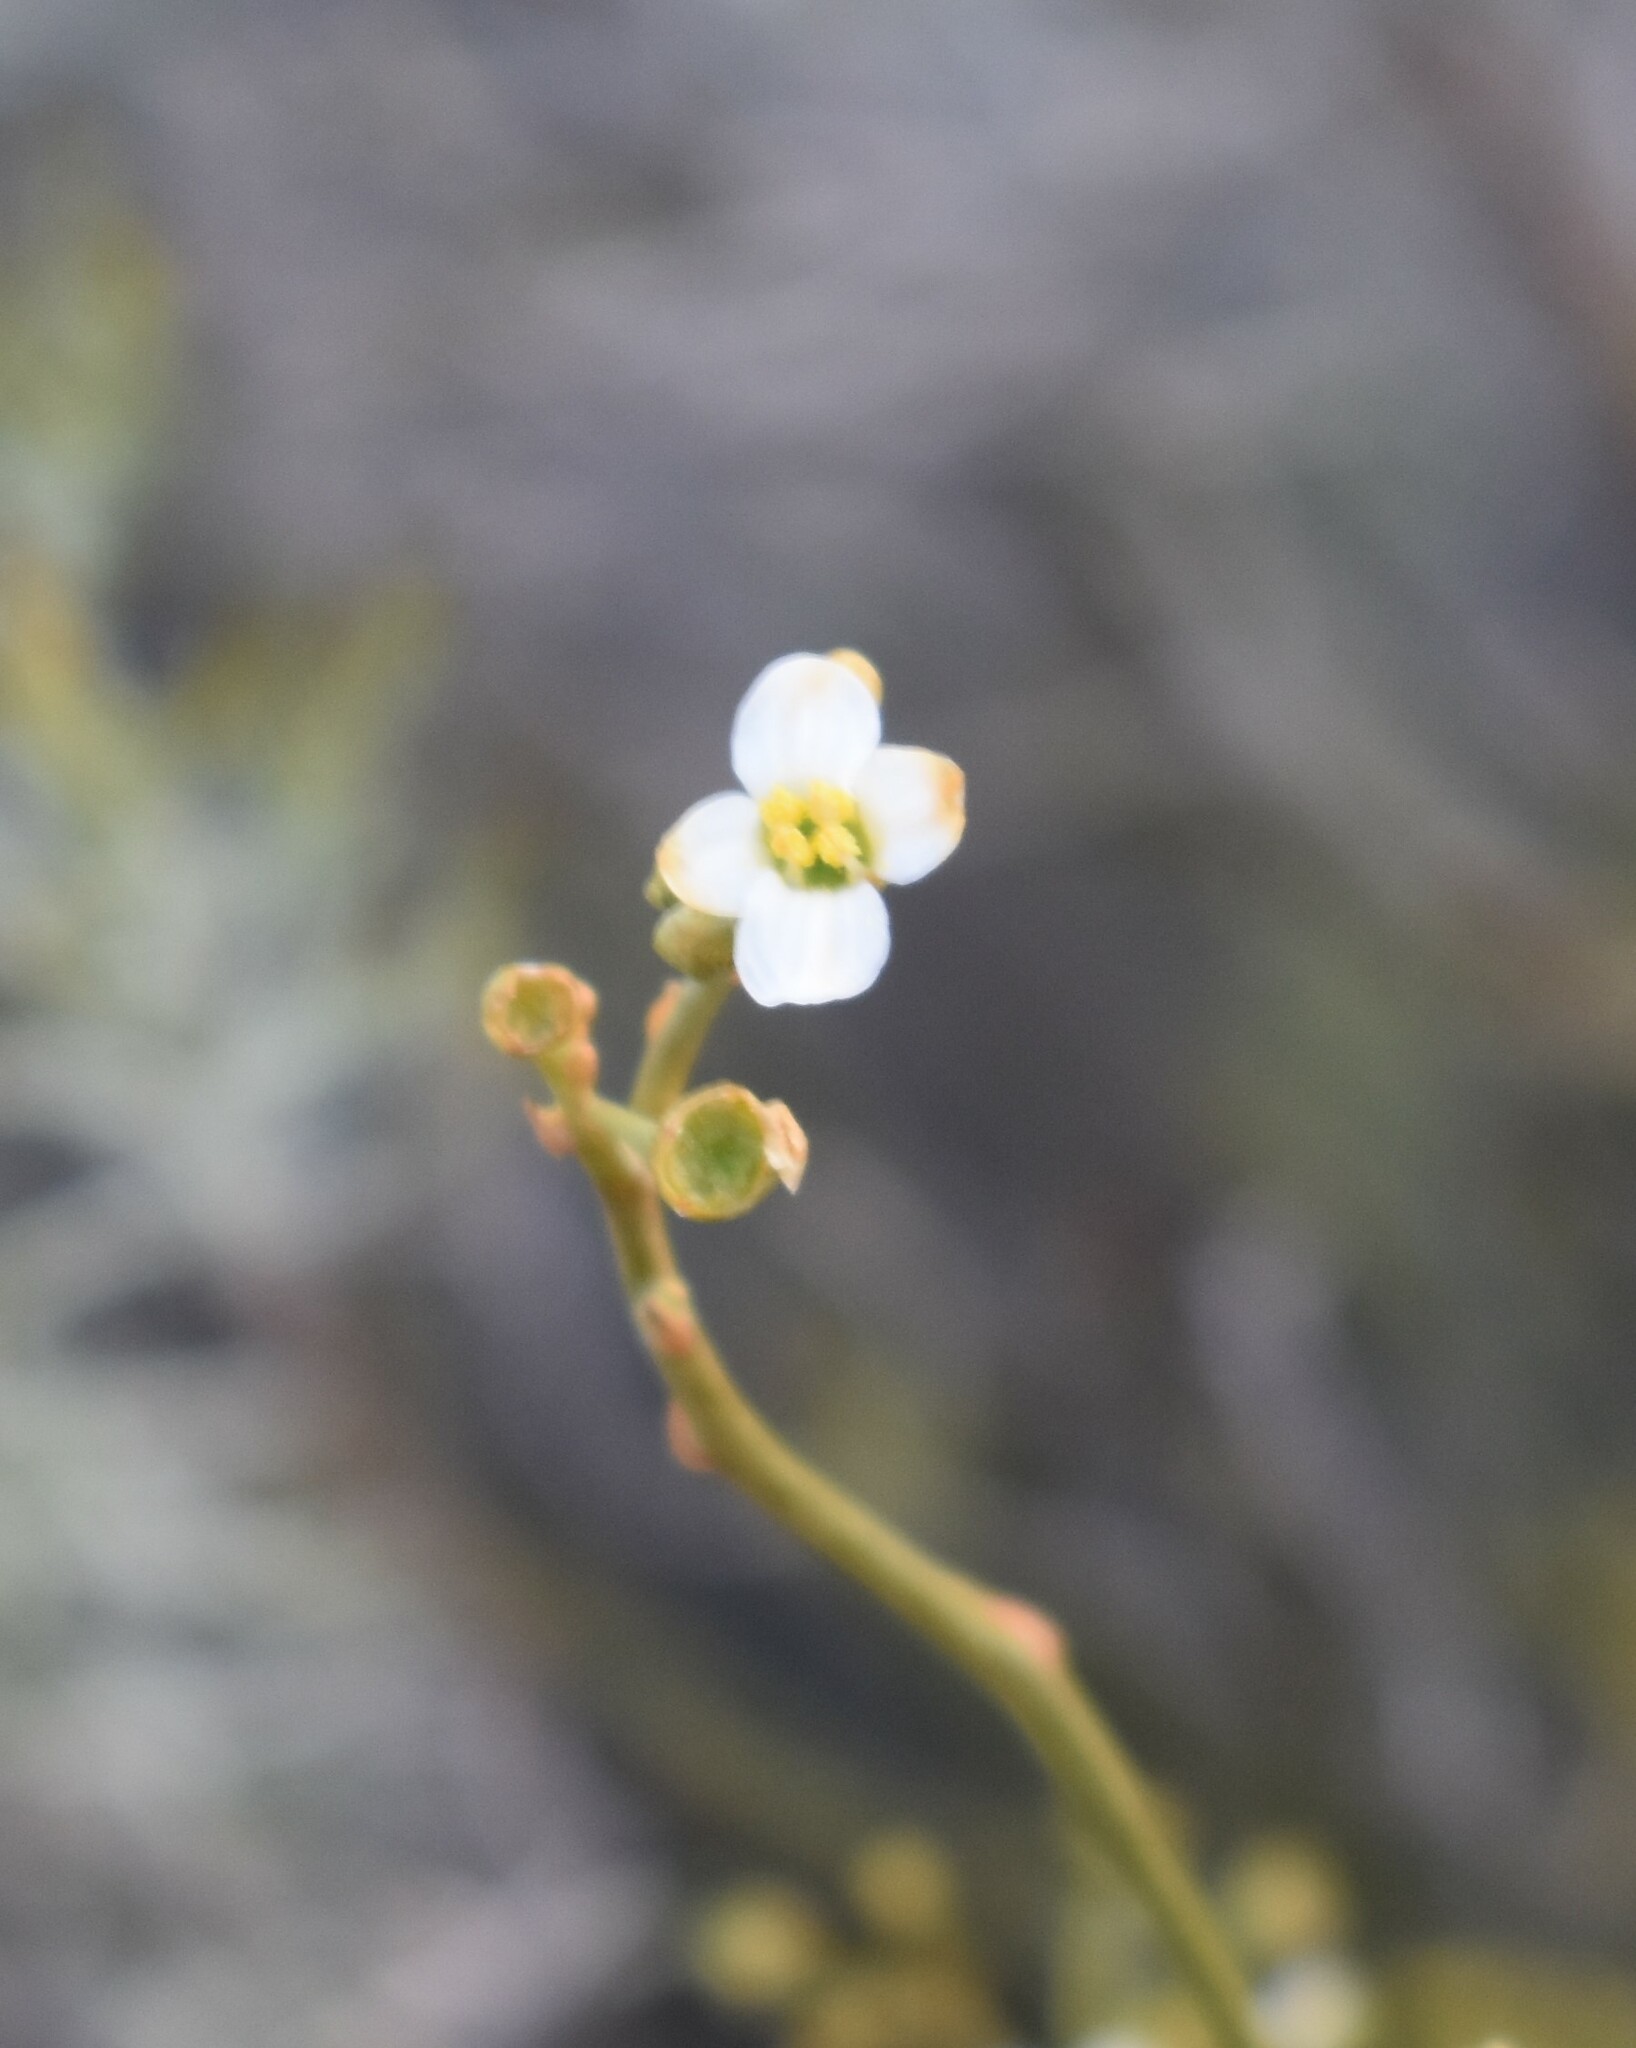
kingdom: Plantae
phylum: Tracheophyta
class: Magnoliopsida
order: Solanales
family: Montiniaceae
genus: Montinia
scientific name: Montinia caryophyllacea
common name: Wild clove-bush
